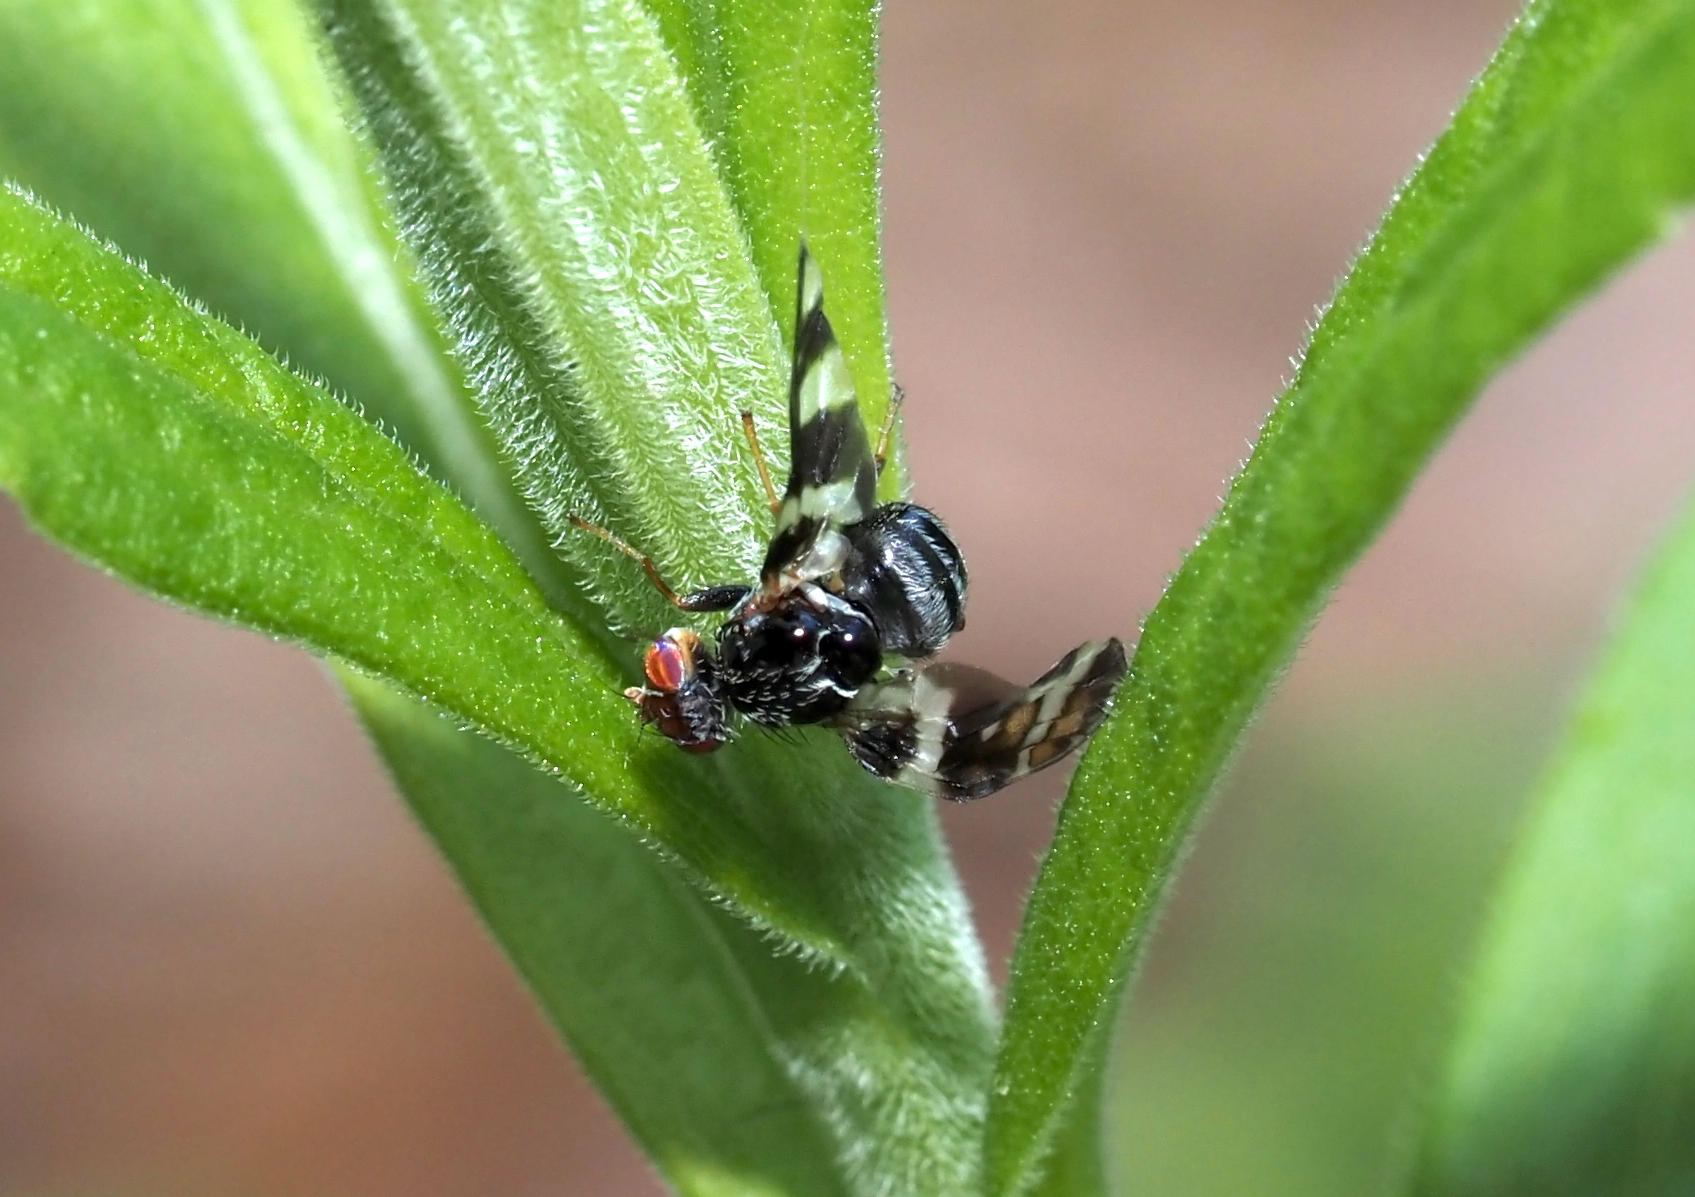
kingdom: Animalia
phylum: Arthropoda
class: Insecta
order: Diptera
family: Tephritidae
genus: Procecidochares
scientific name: Procecidochares atra
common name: Goldenrod brussels sprout gall fly
